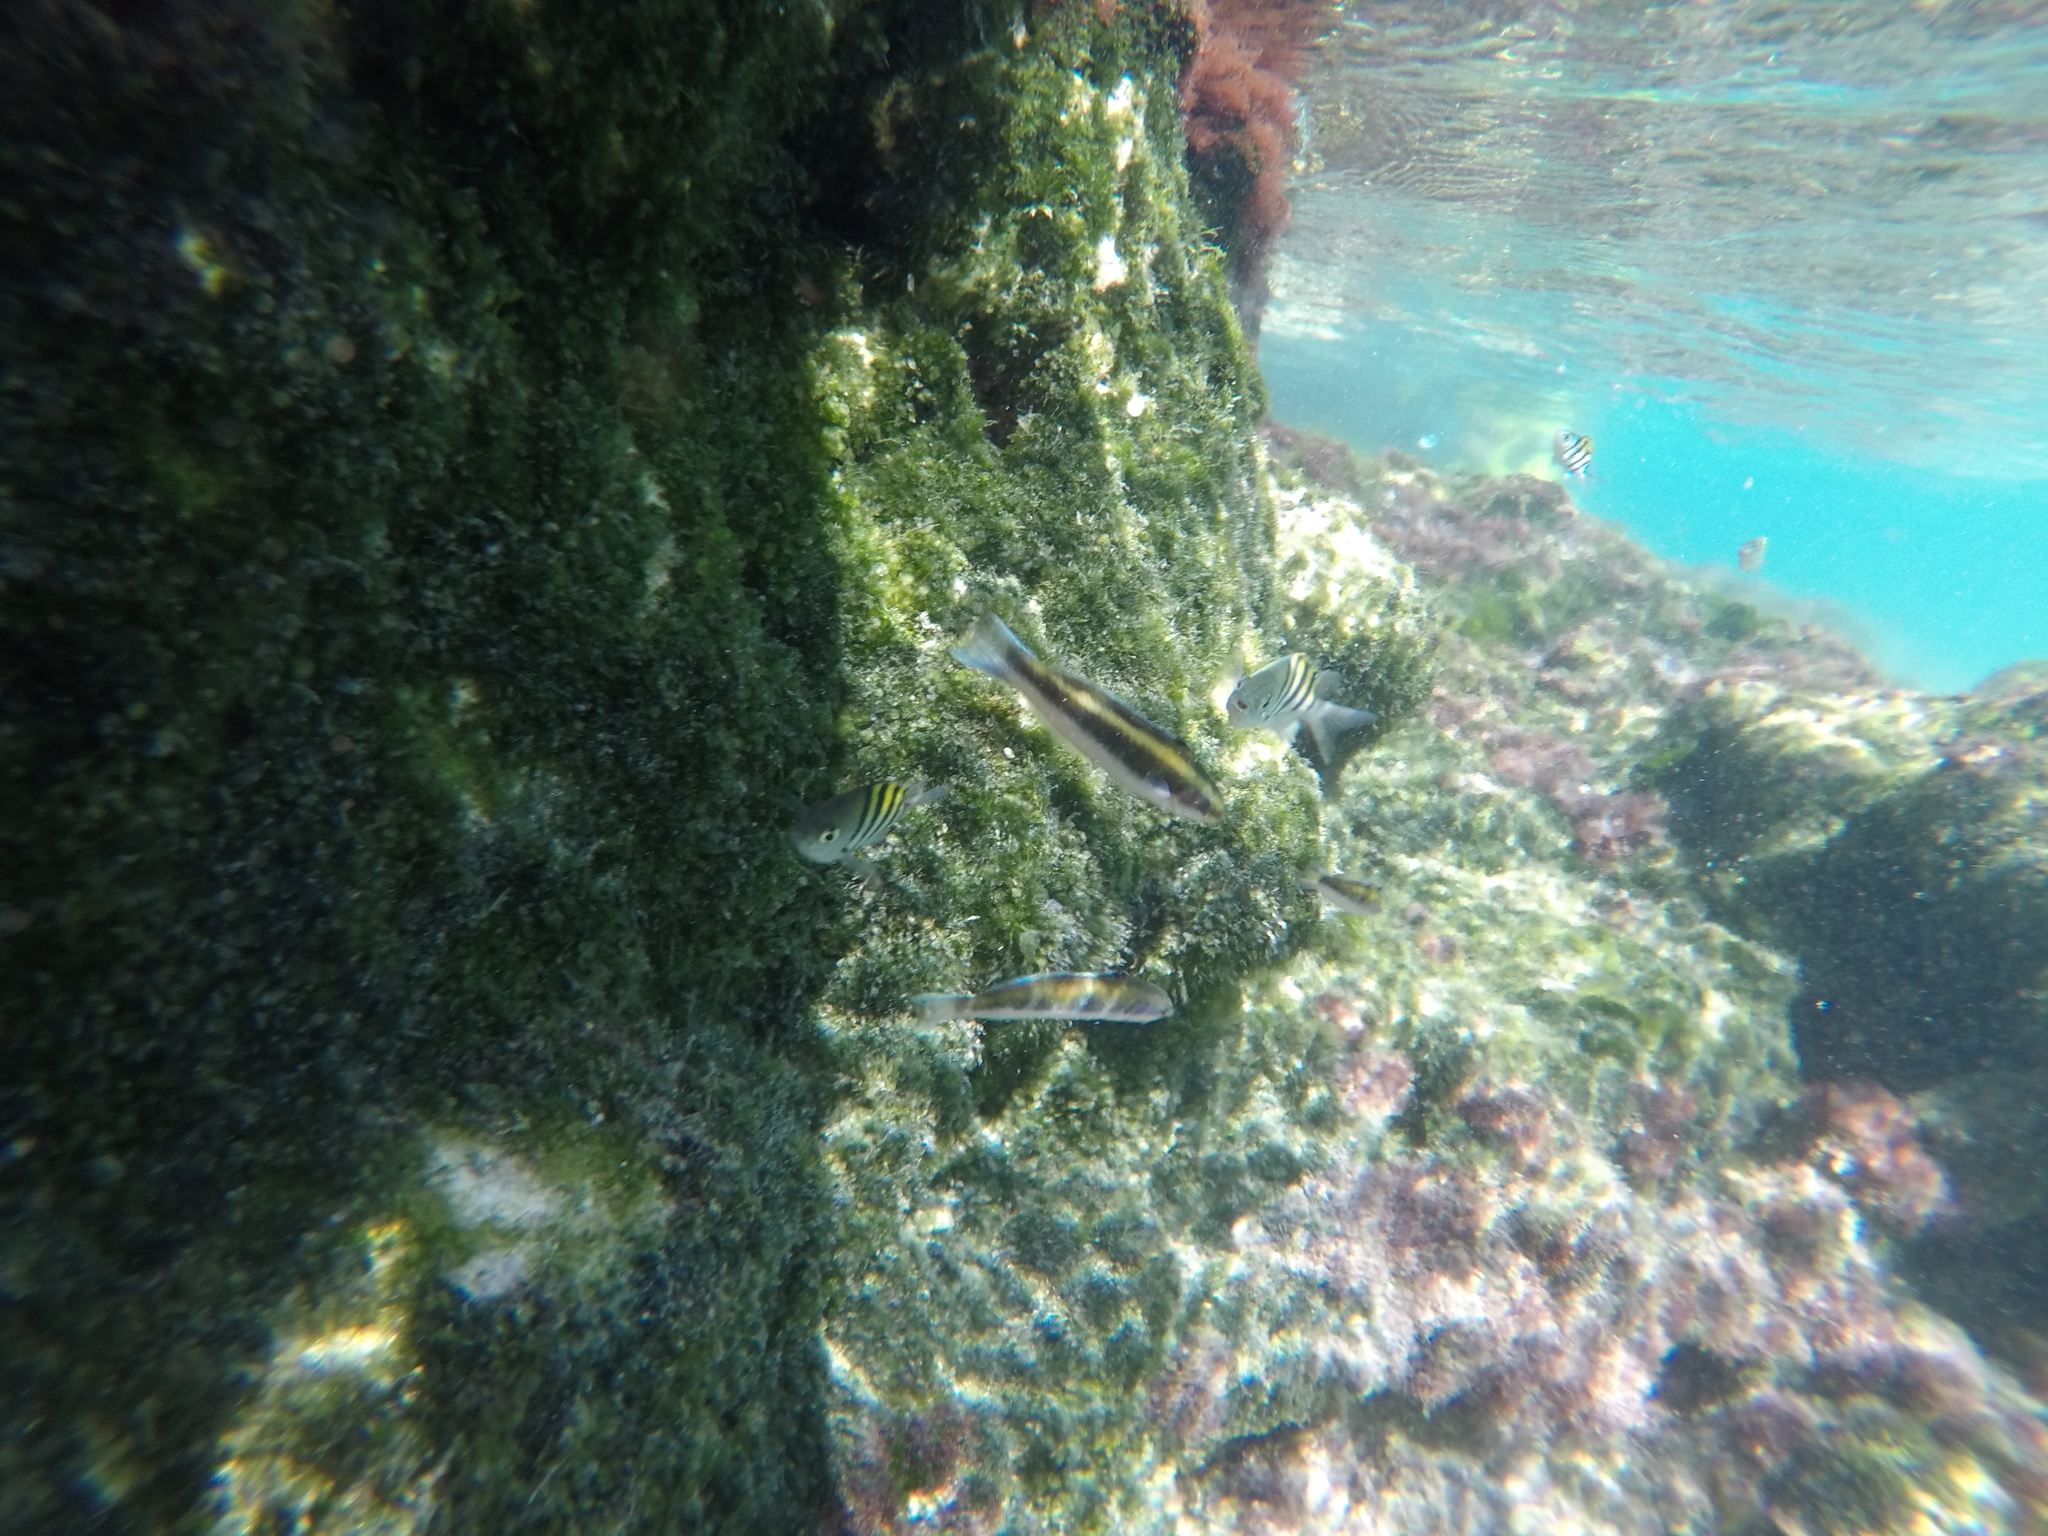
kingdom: Animalia
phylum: Chordata
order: Perciformes
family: Labridae
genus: Thalassoma
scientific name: Thalassoma bifasciatum
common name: Bluehead wrasse
